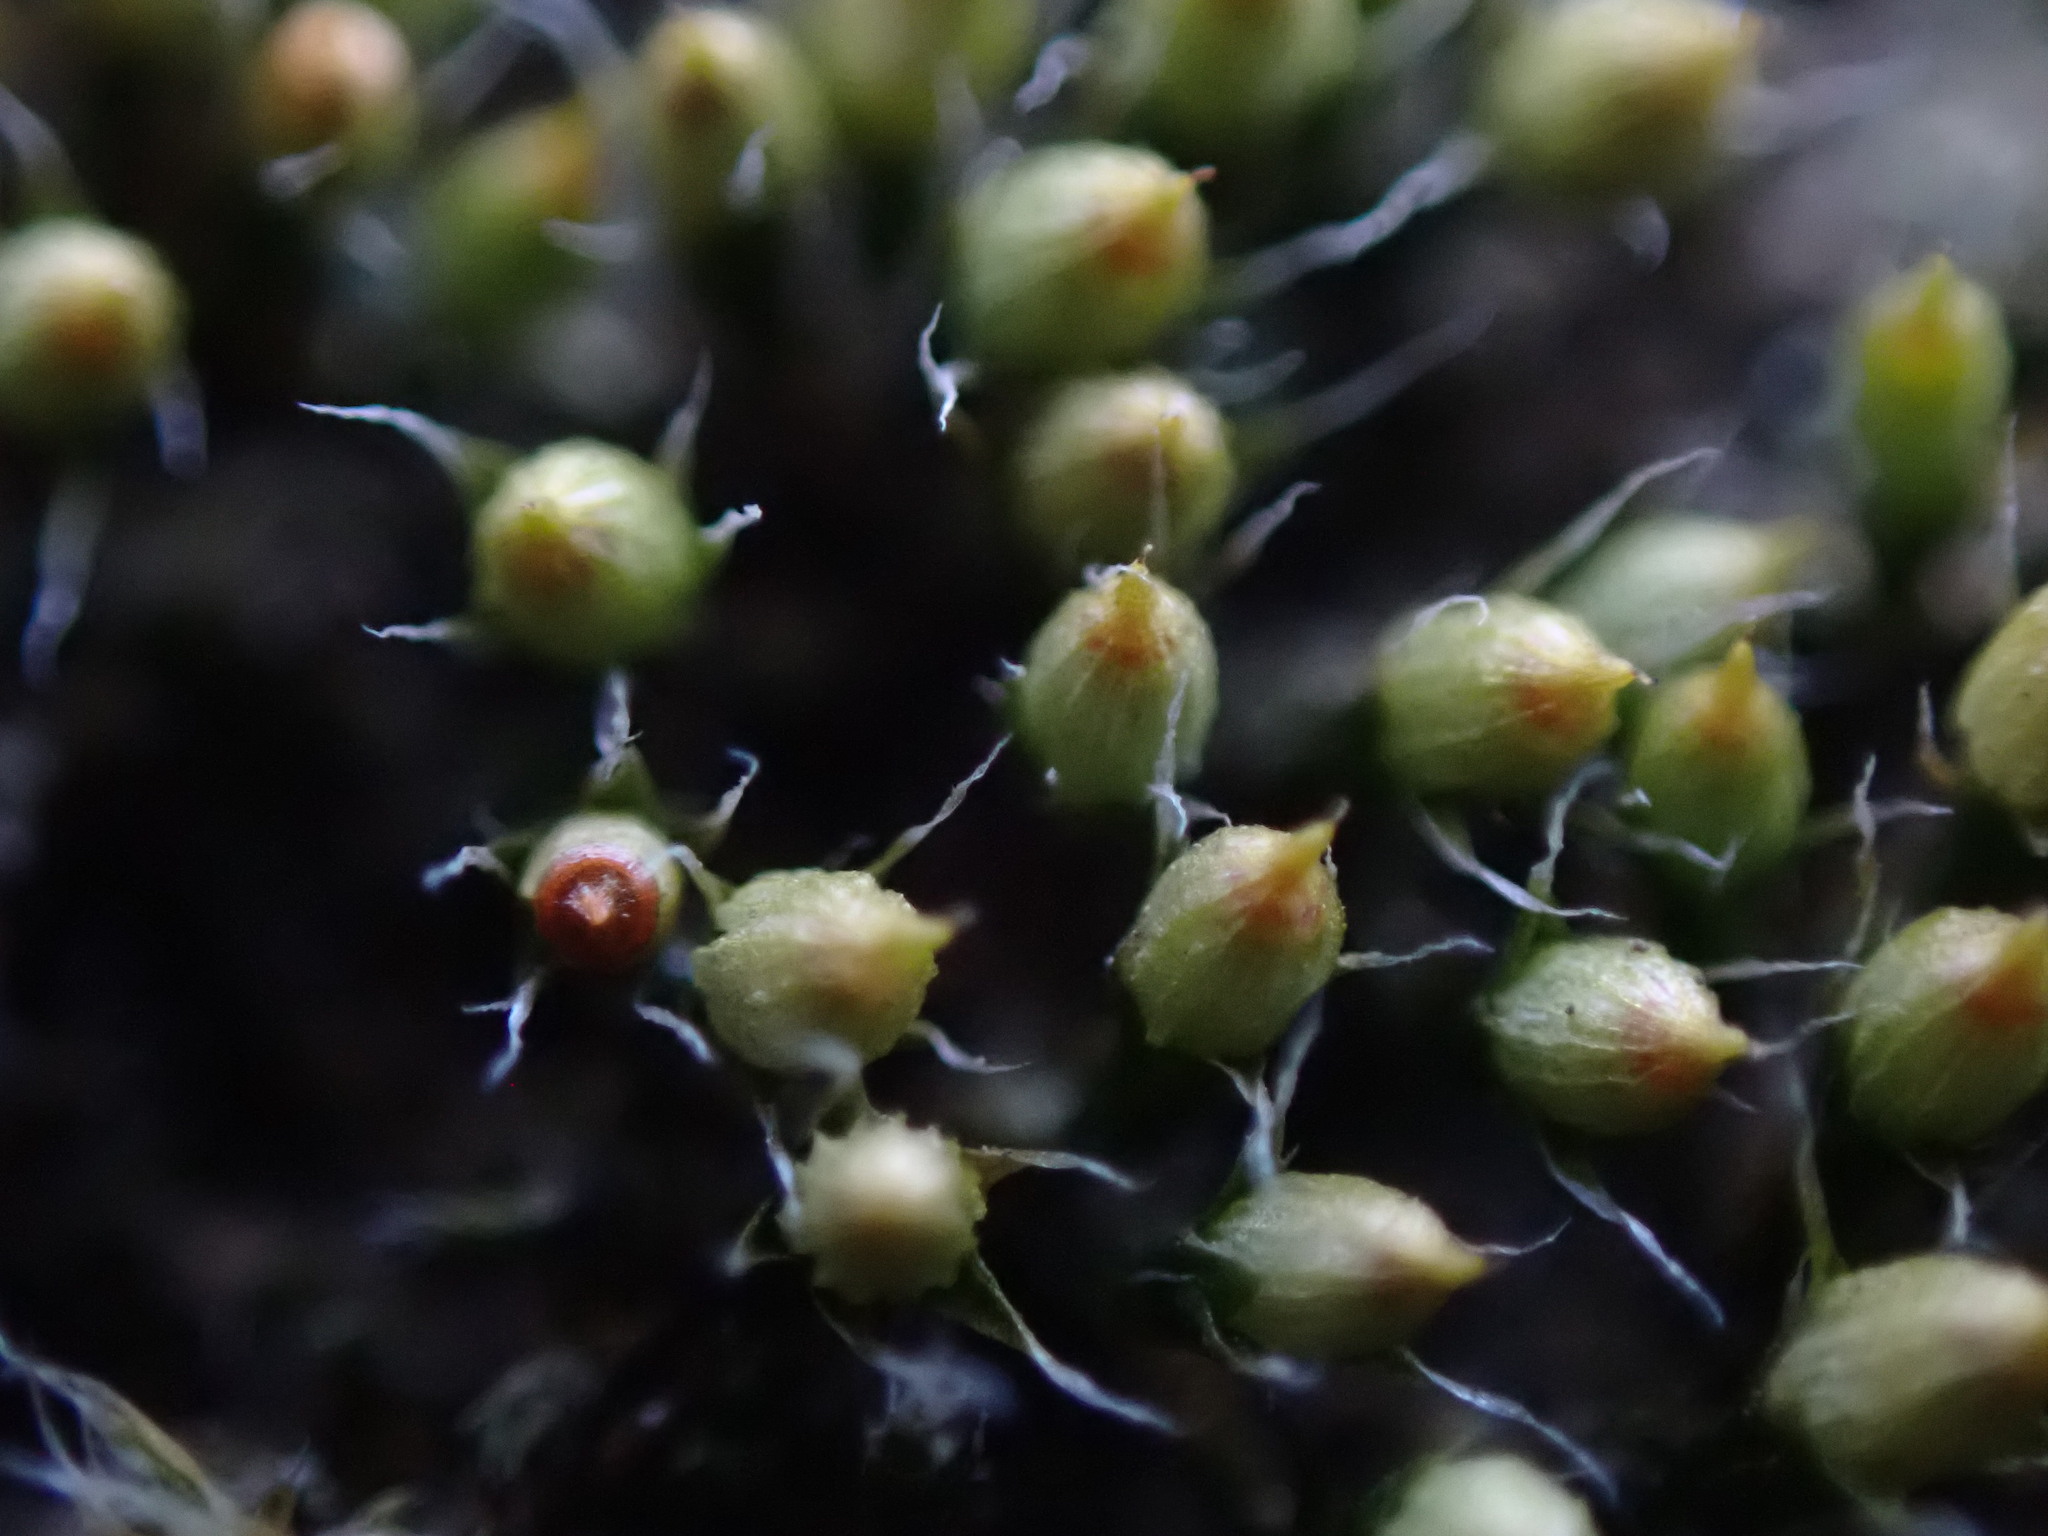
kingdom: Plantae
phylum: Bryophyta
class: Bryopsida
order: Dicranales
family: Erpodiaceae
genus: Venturiella
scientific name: Venturiella sinensis
